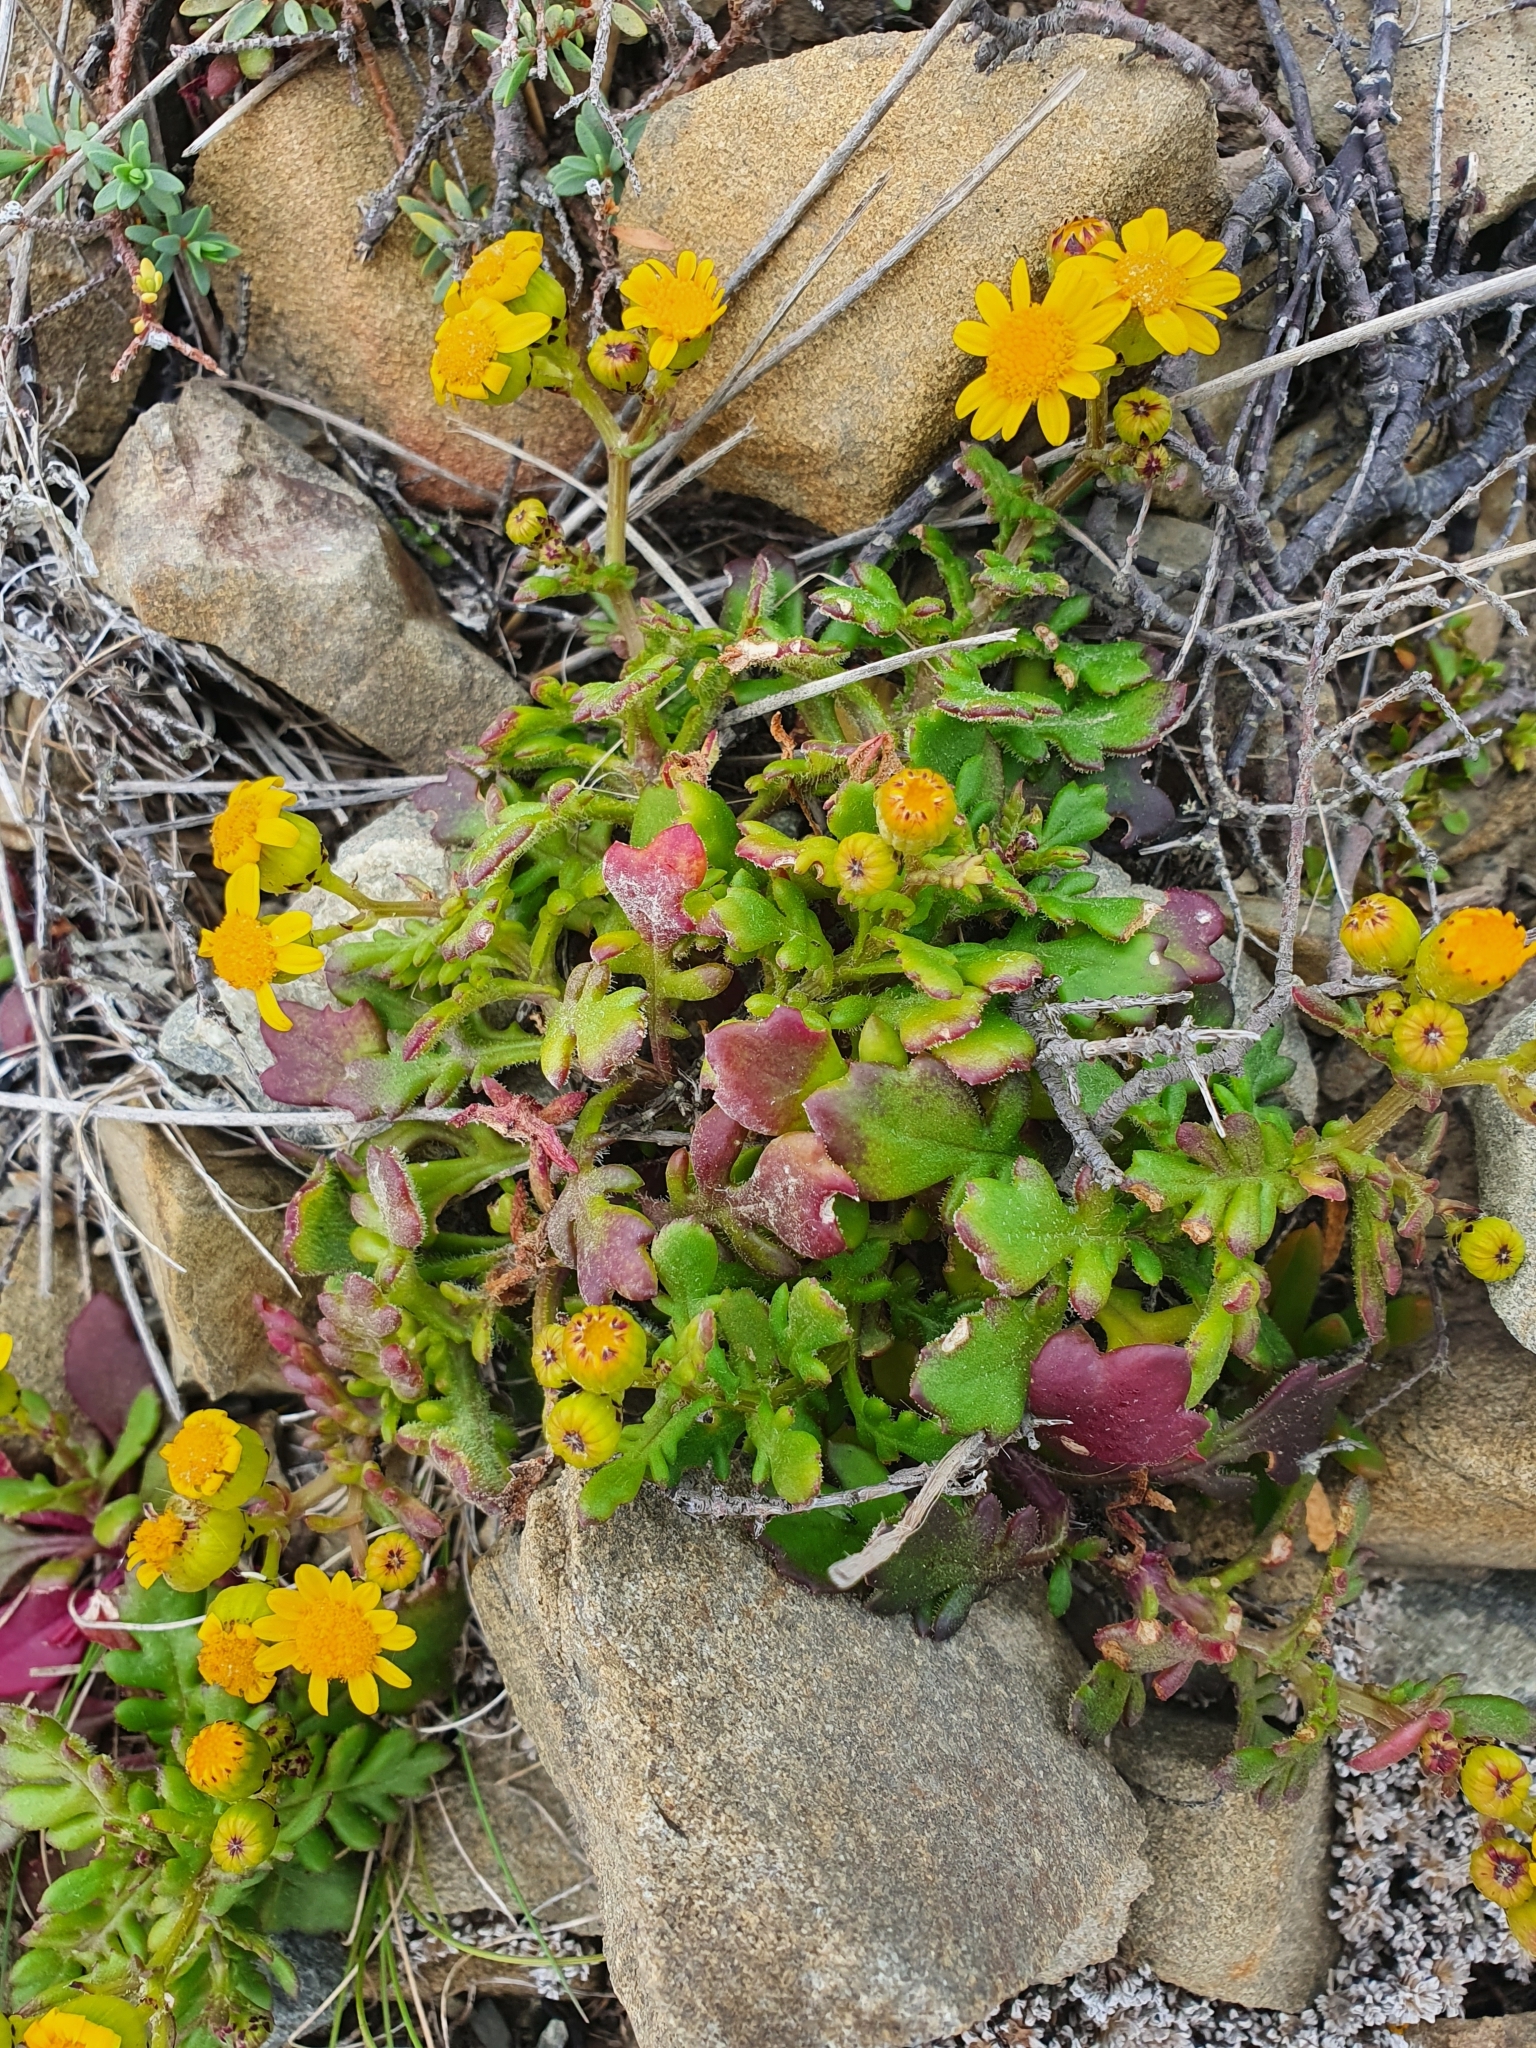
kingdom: Plantae
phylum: Tracheophyta
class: Magnoliopsida
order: Asterales
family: Asteraceae
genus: Senecio
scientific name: Senecio lautus
